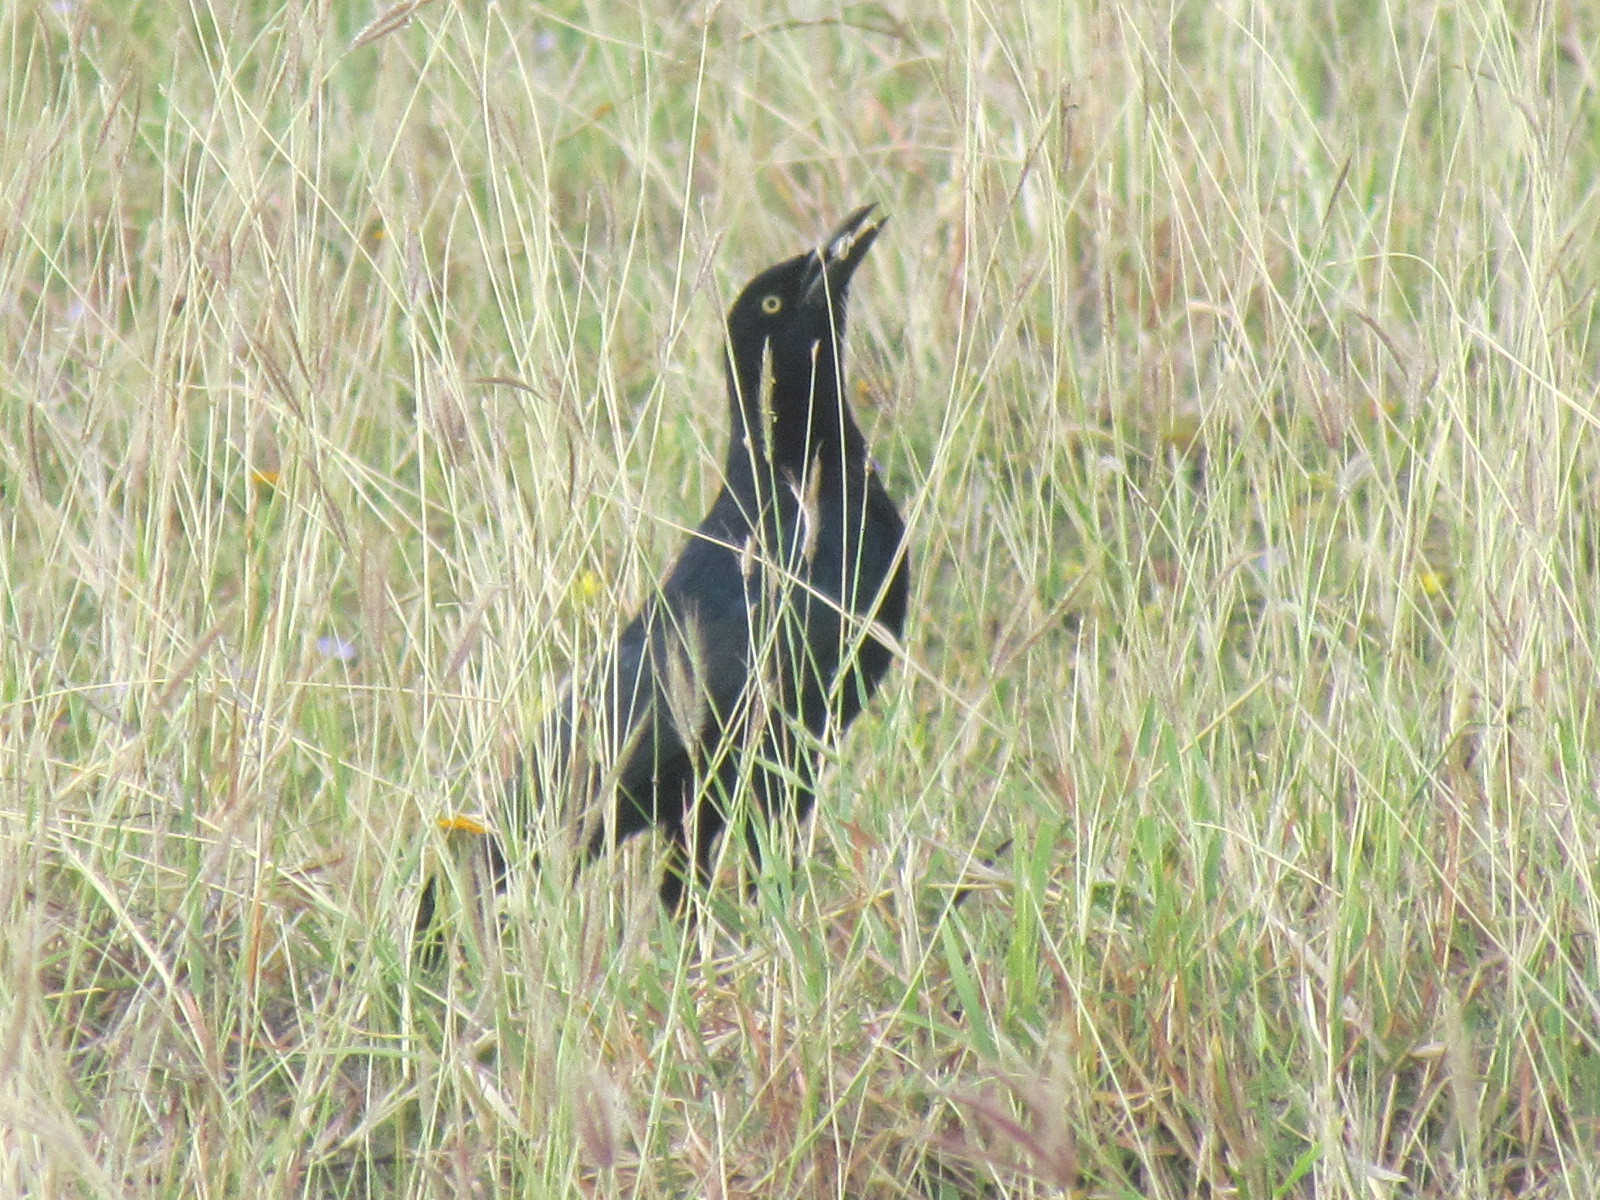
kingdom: Animalia
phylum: Chordata
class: Aves
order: Passeriformes
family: Icteridae
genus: Quiscalus
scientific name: Quiscalus mexicanus
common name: Great-tailed grackle
